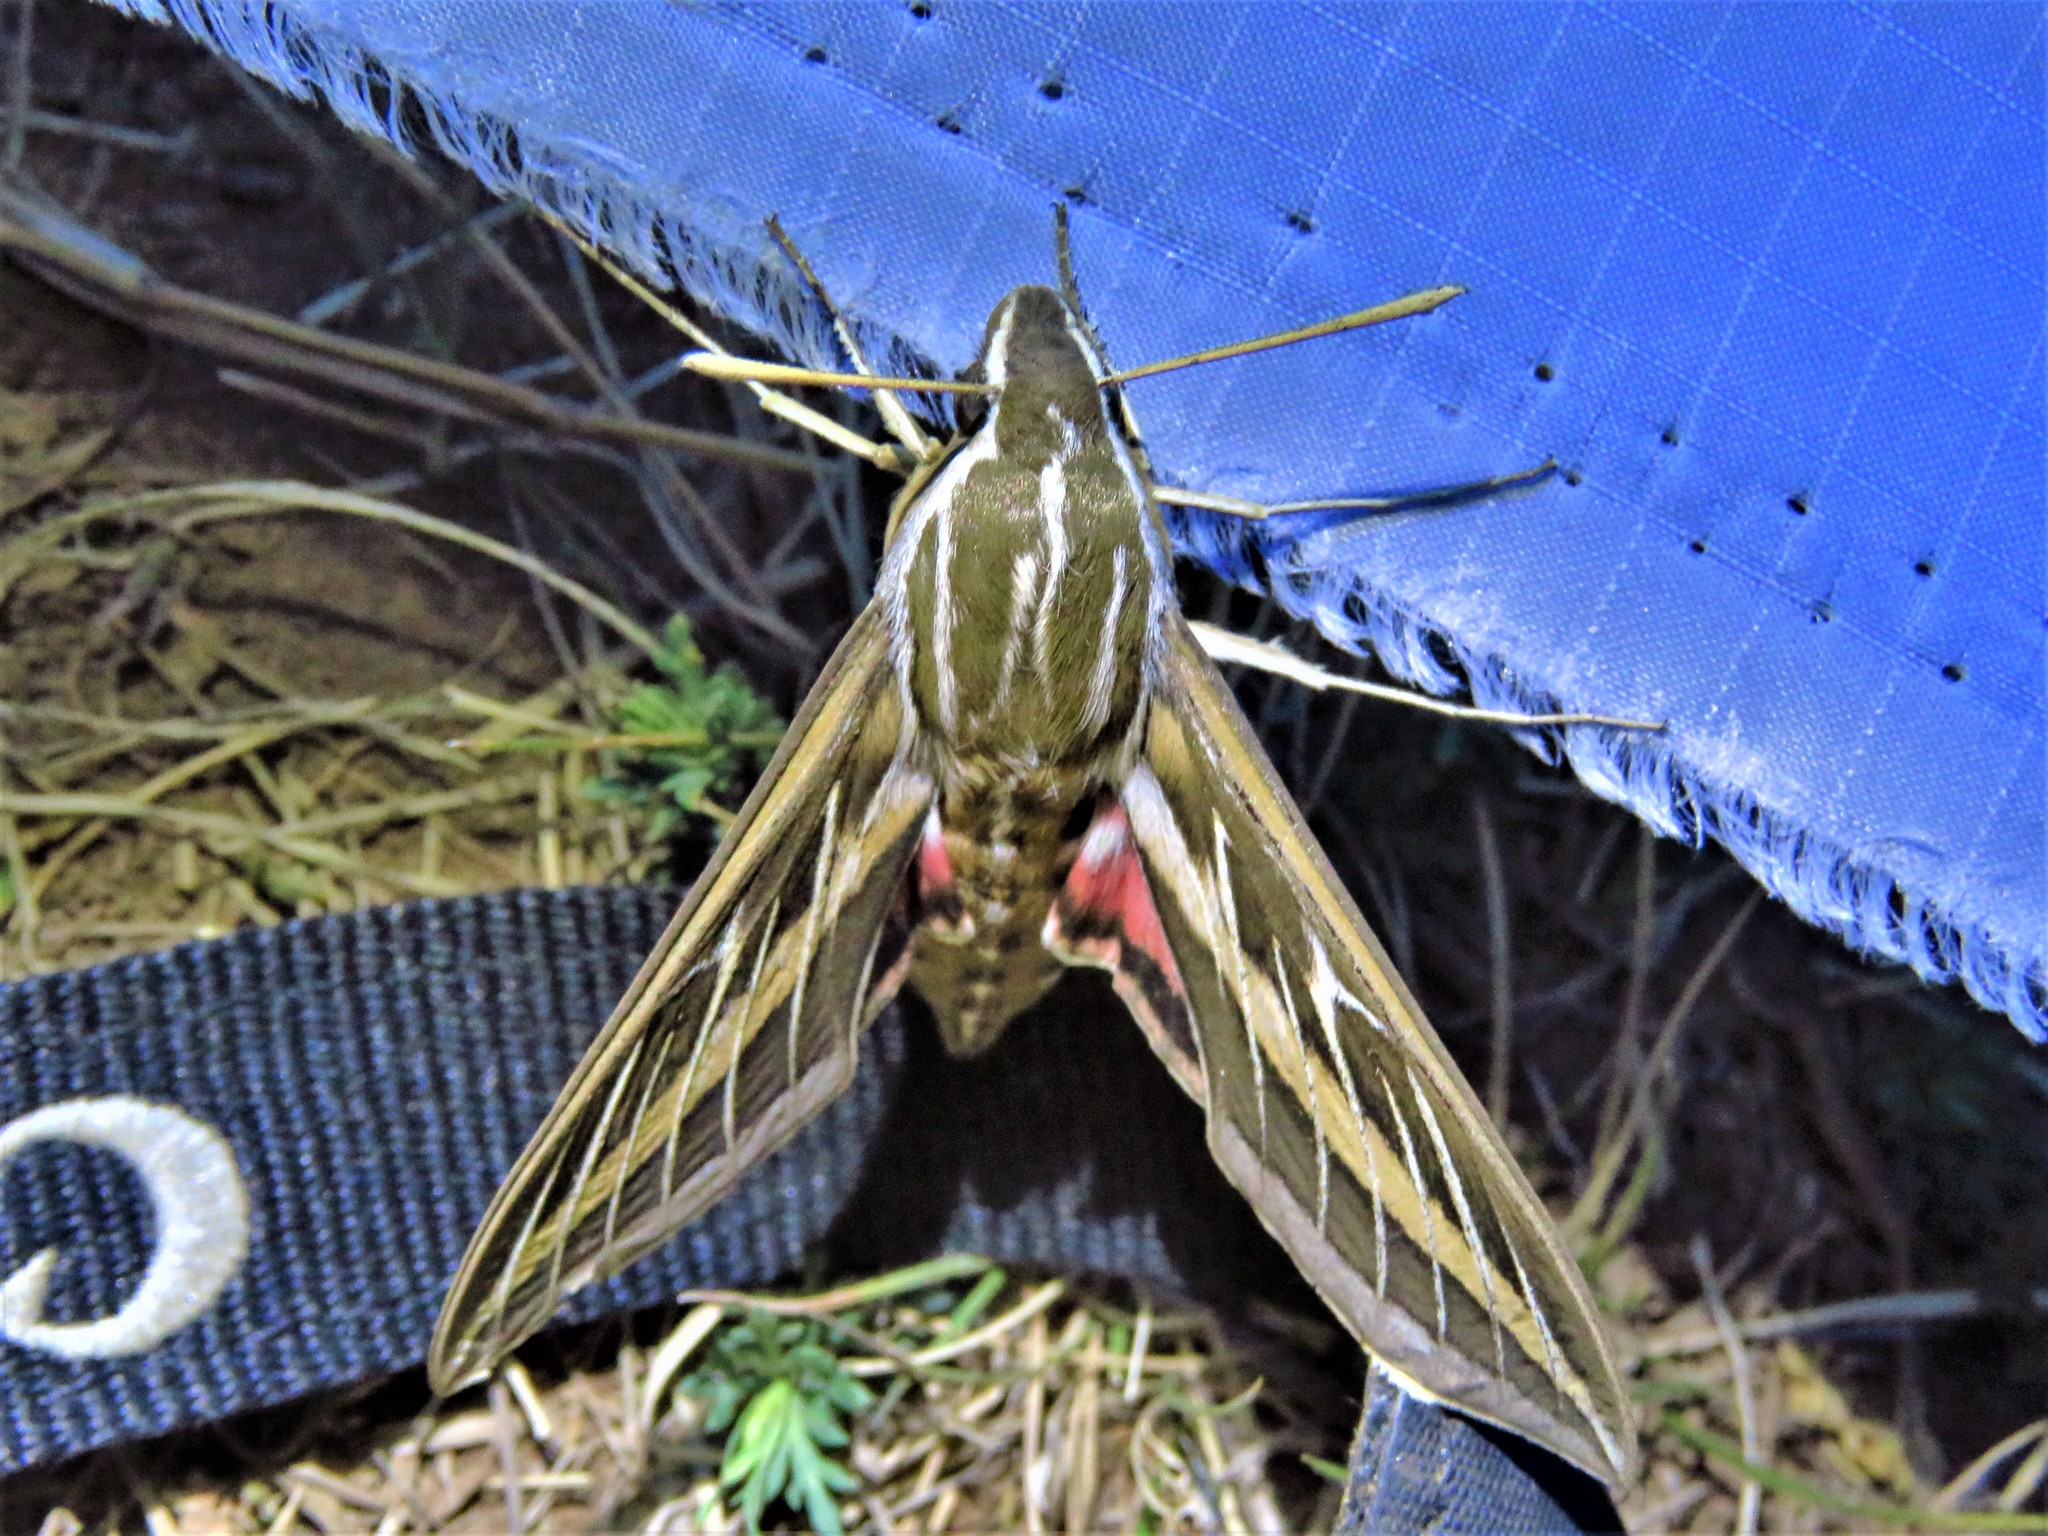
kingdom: Animalia
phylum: Arthropoda
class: Insecta
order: Lepidoptera
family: Sphingidae
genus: Hyles
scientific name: Hyles lineata
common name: White-lined sphinx
